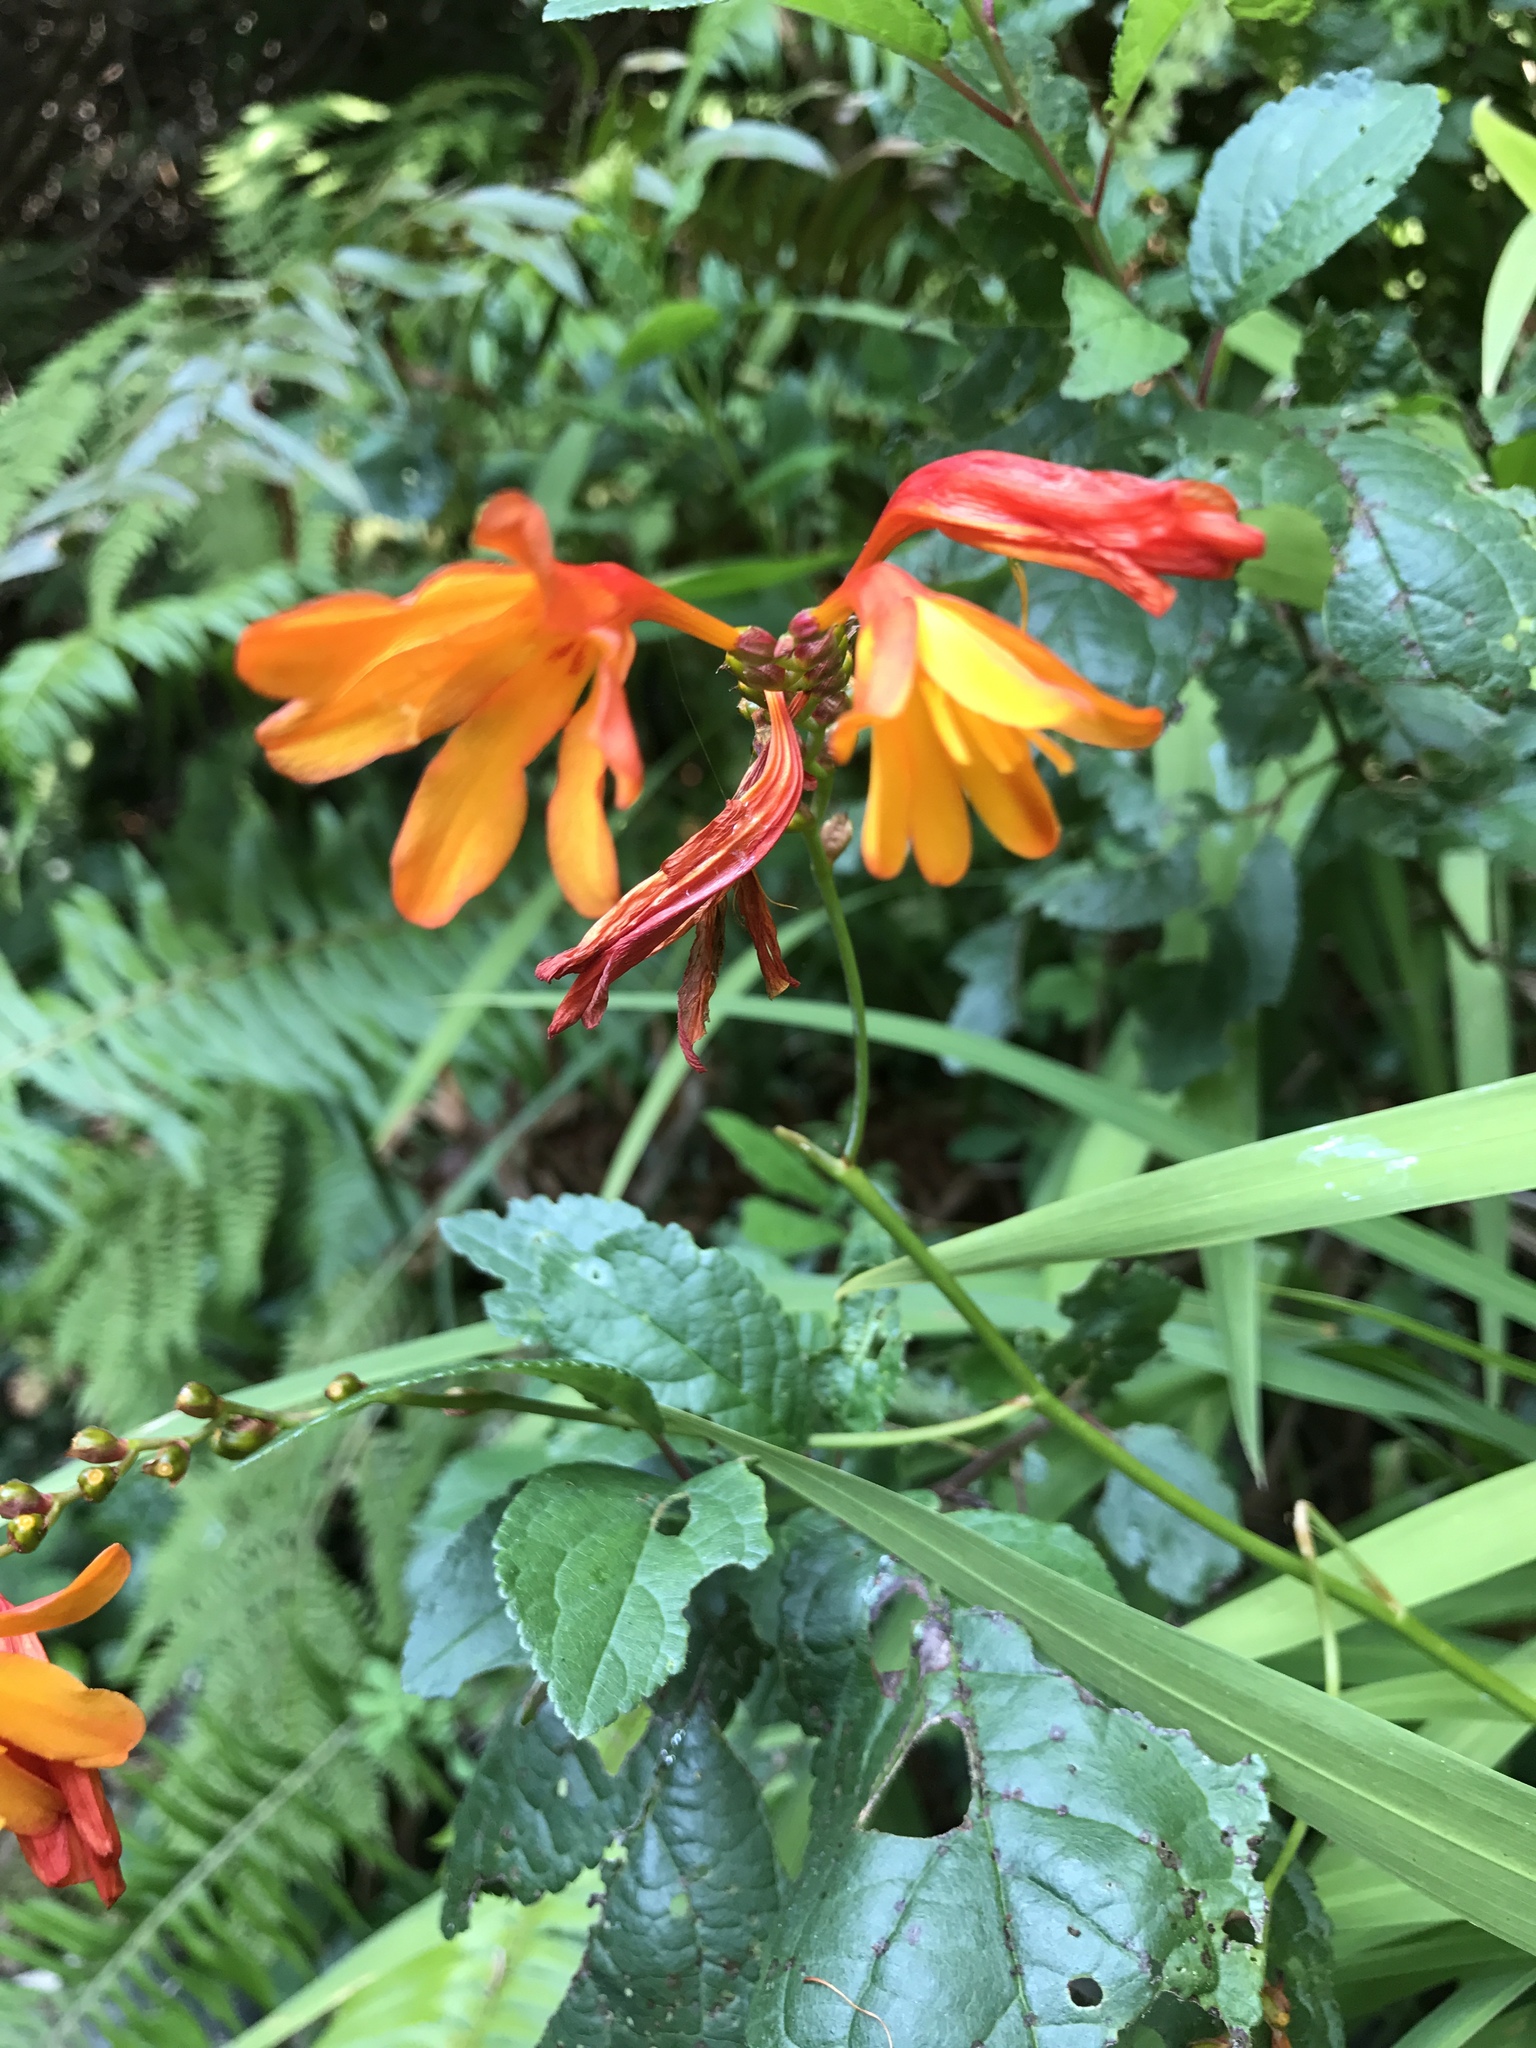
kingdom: Plantae
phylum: Tracheophyta
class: Liliopsida
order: Asparagales
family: Iridaceae
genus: Crocosmia
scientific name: Crocosmia crocosmiiflora
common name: Montbretia
